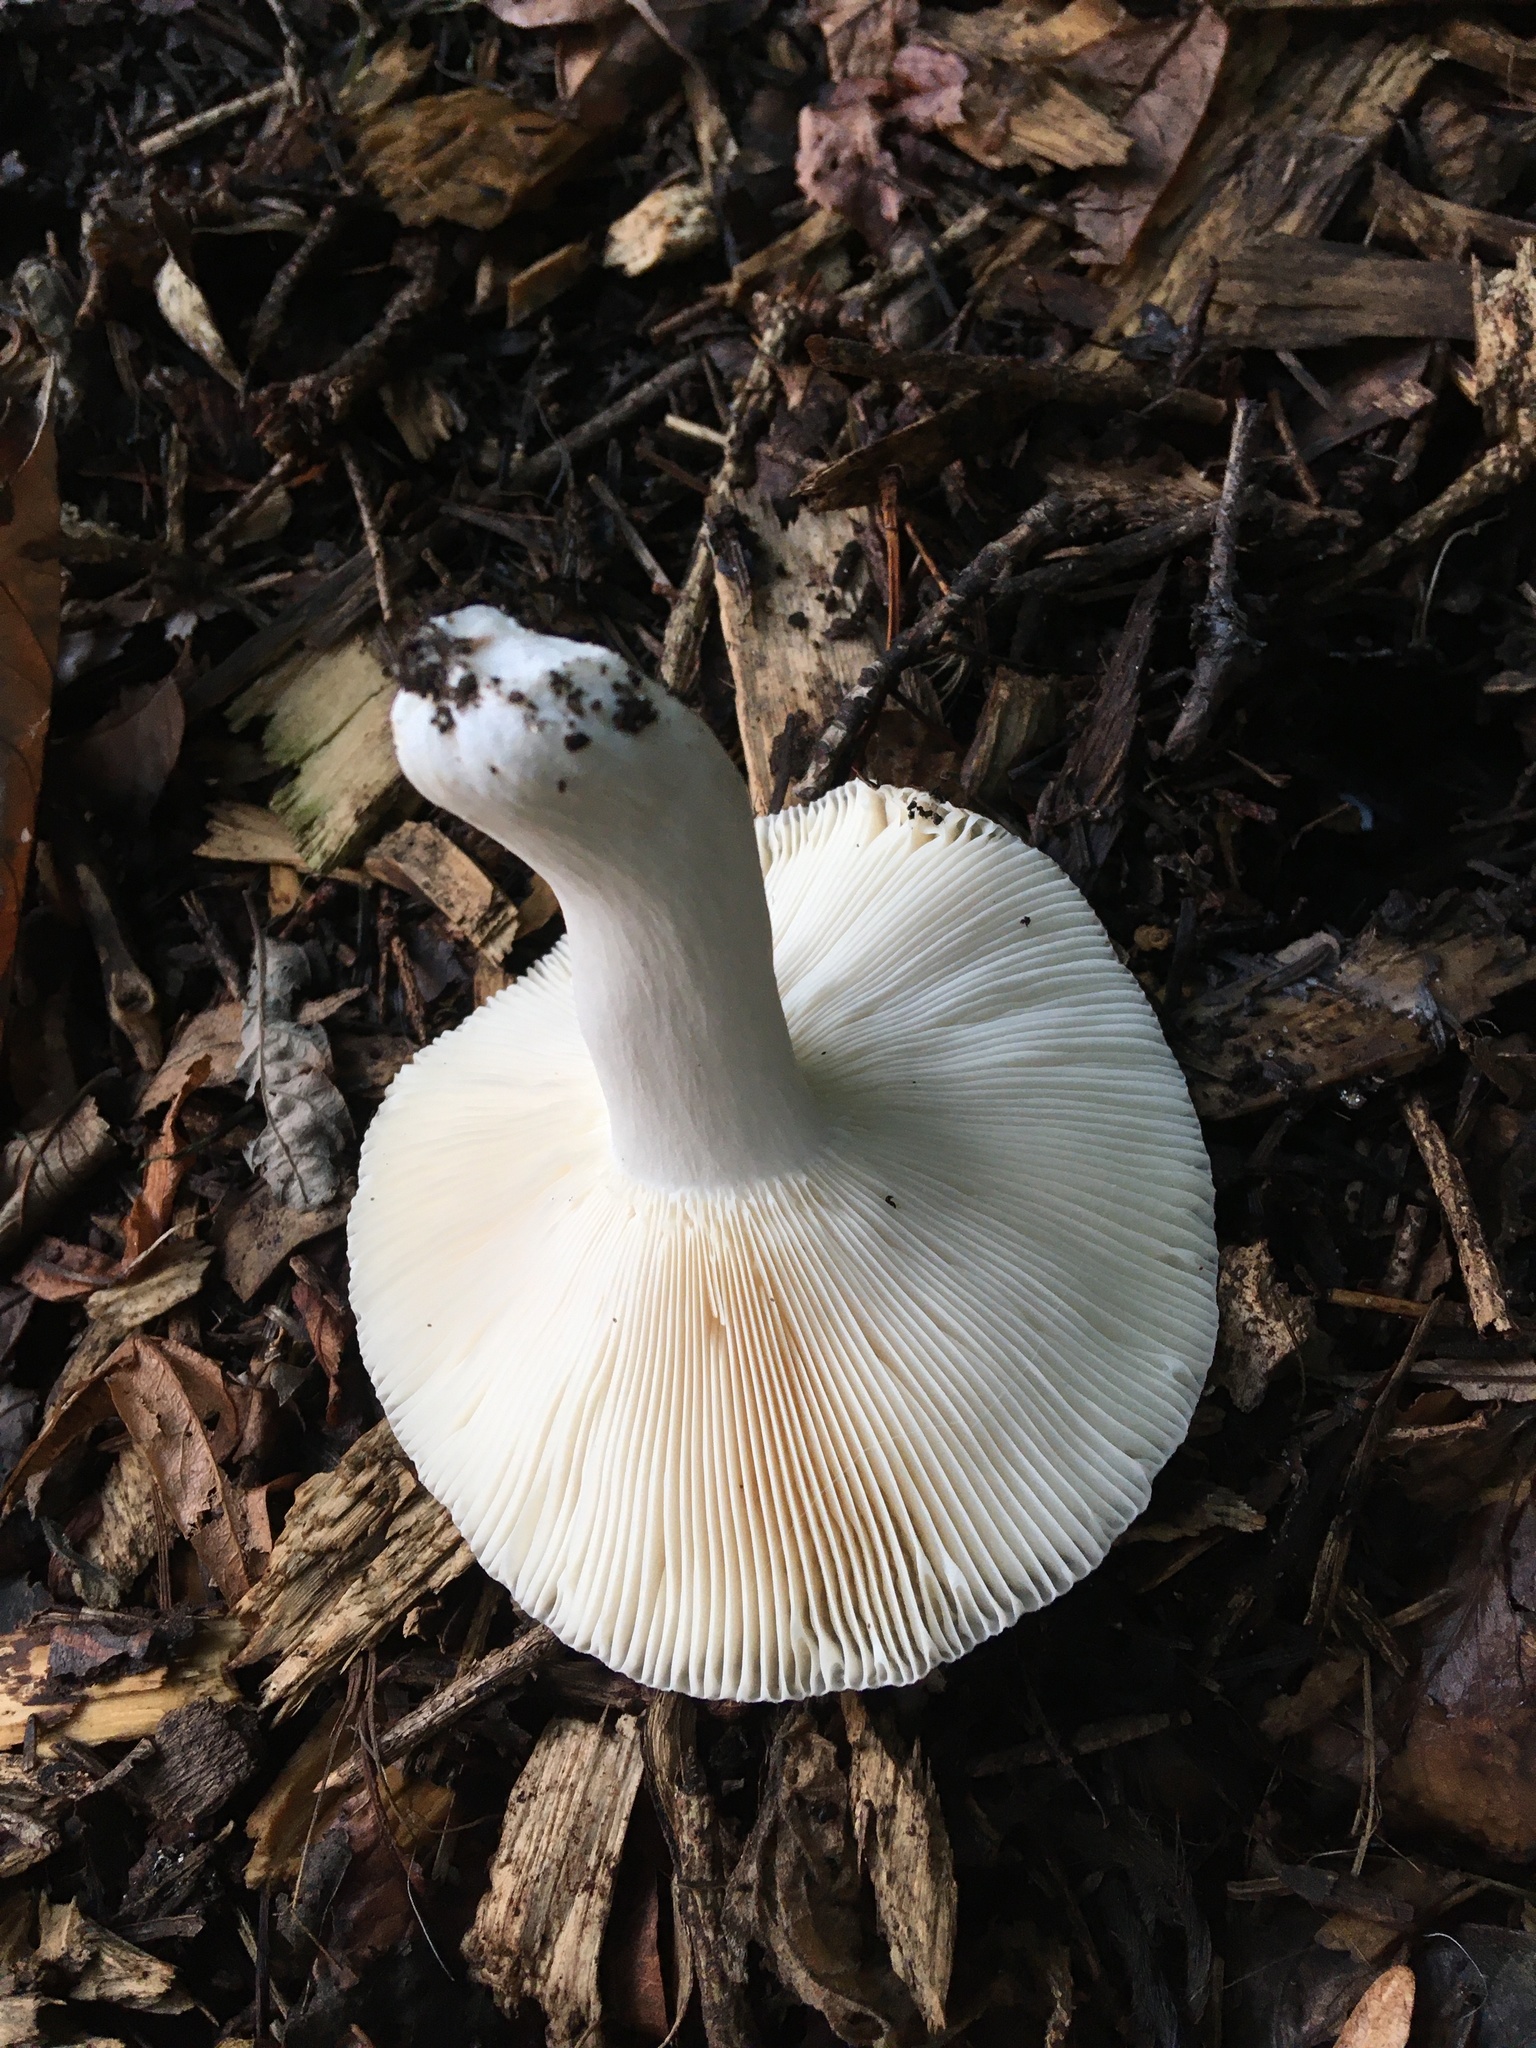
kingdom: Fungi
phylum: Basidiomycota
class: Agaricomycetes
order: Russulales
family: Russulaceae
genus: Russula
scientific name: Russula cyanoxantha
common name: Charcoal burner
